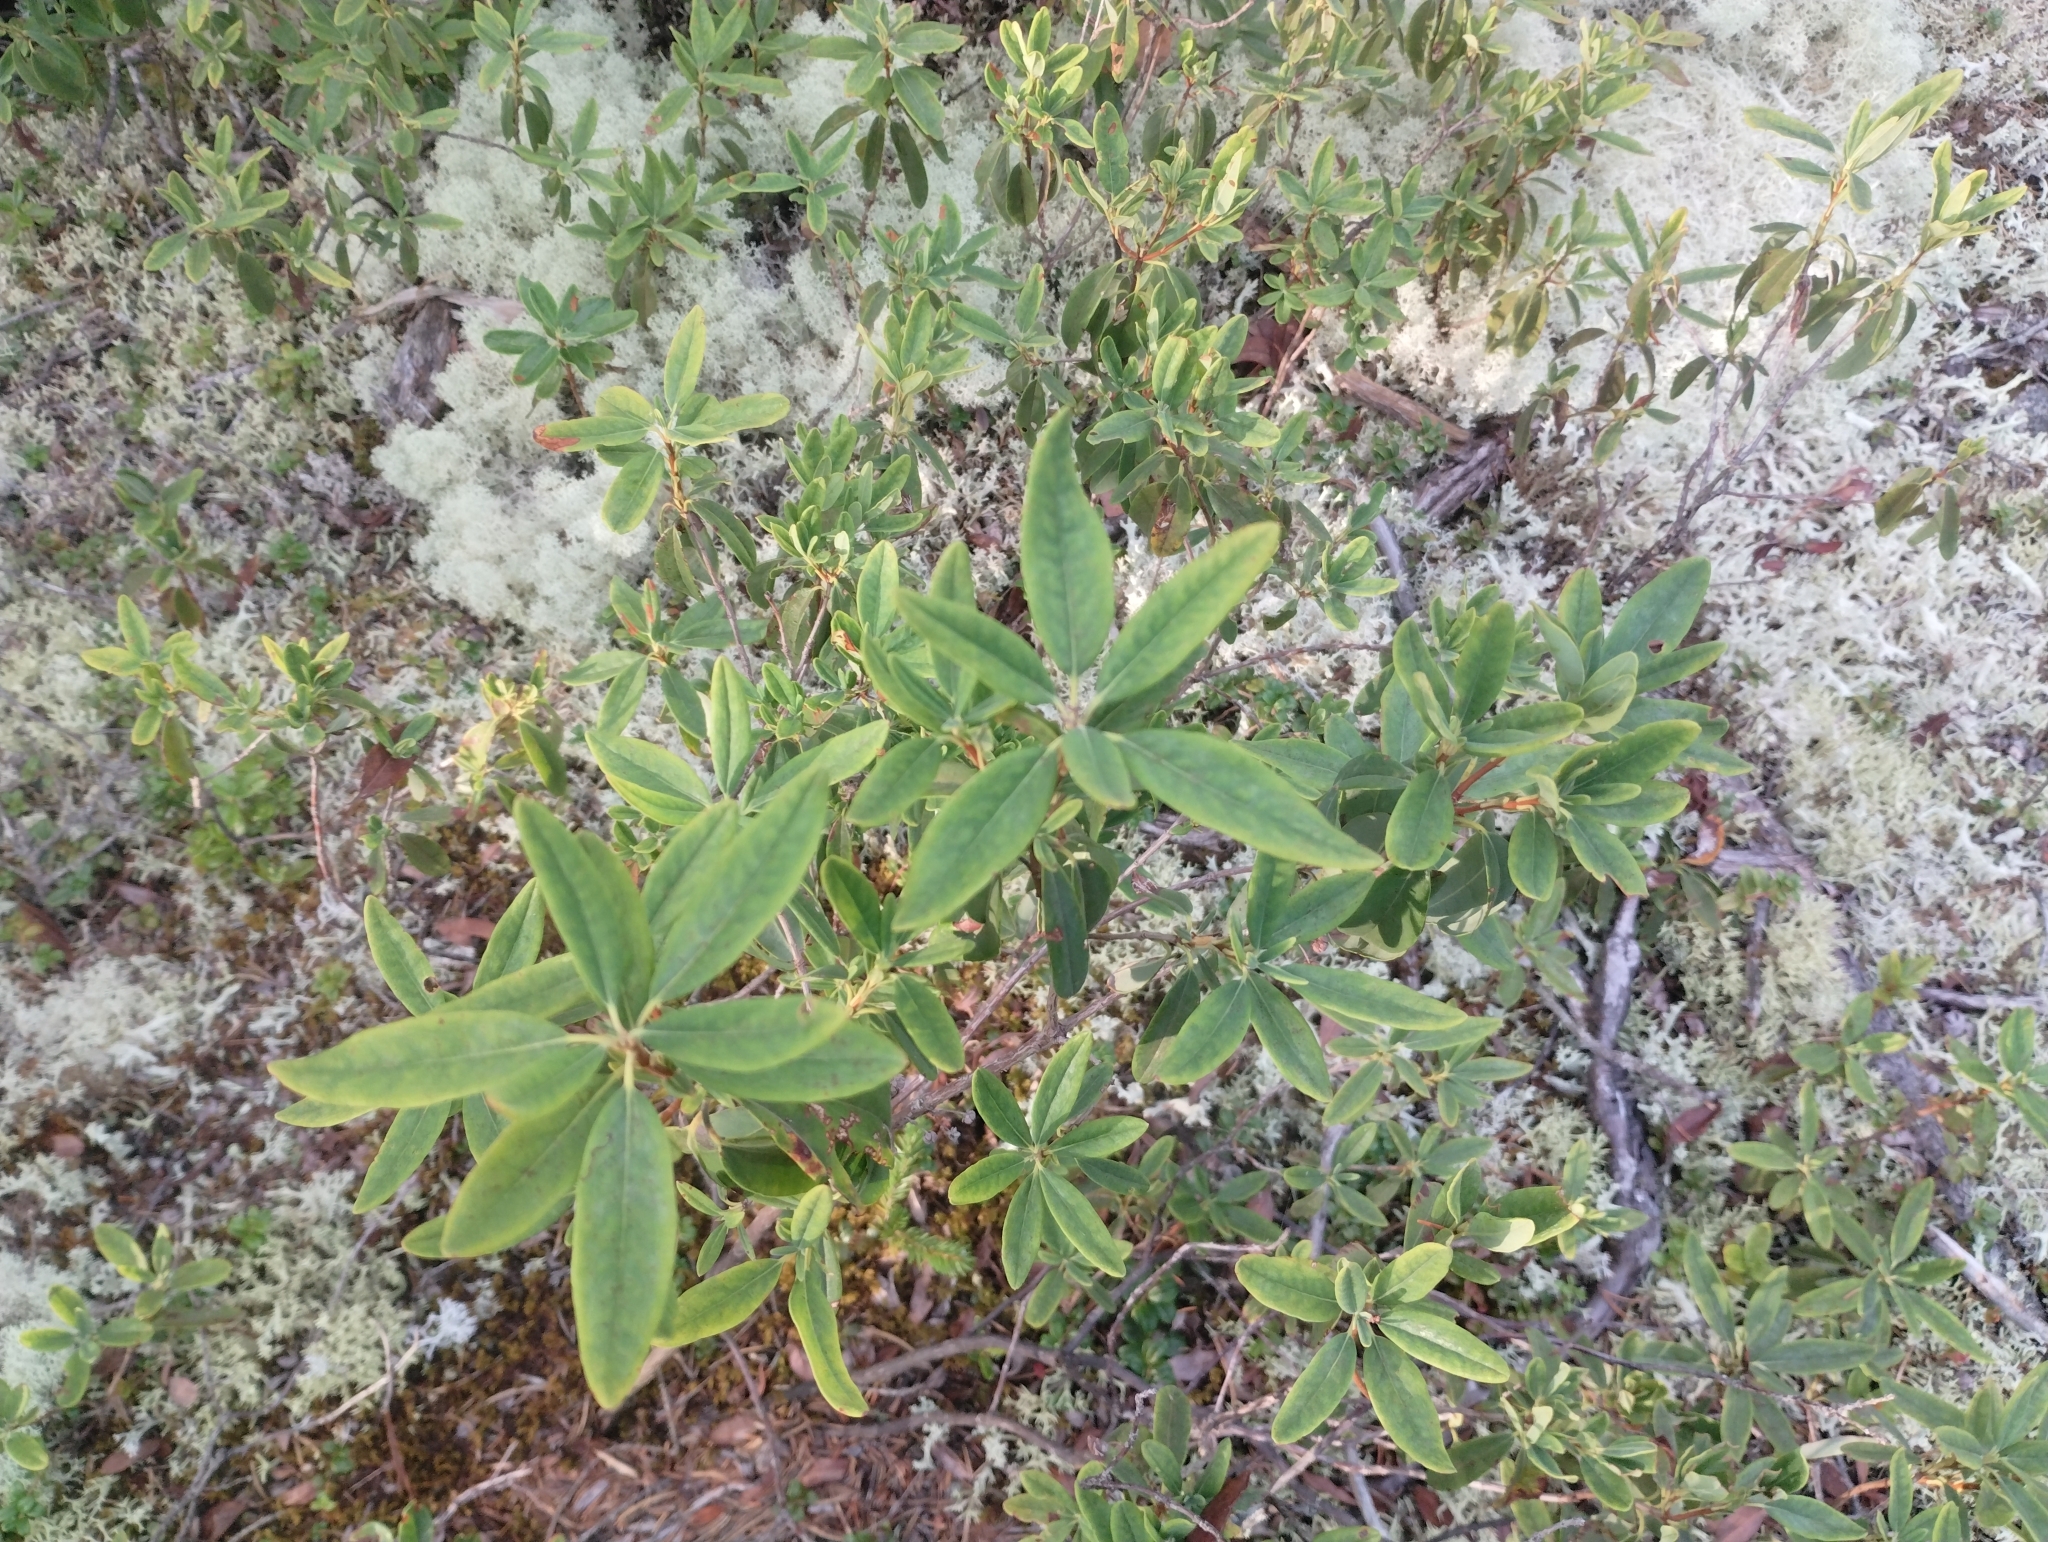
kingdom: Plantae
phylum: Tracheophyta
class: Magnoliopsida
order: Ericales
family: Ericaceae
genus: Kalmia
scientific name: Kalmia angustifolia
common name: Sheep-laurel
